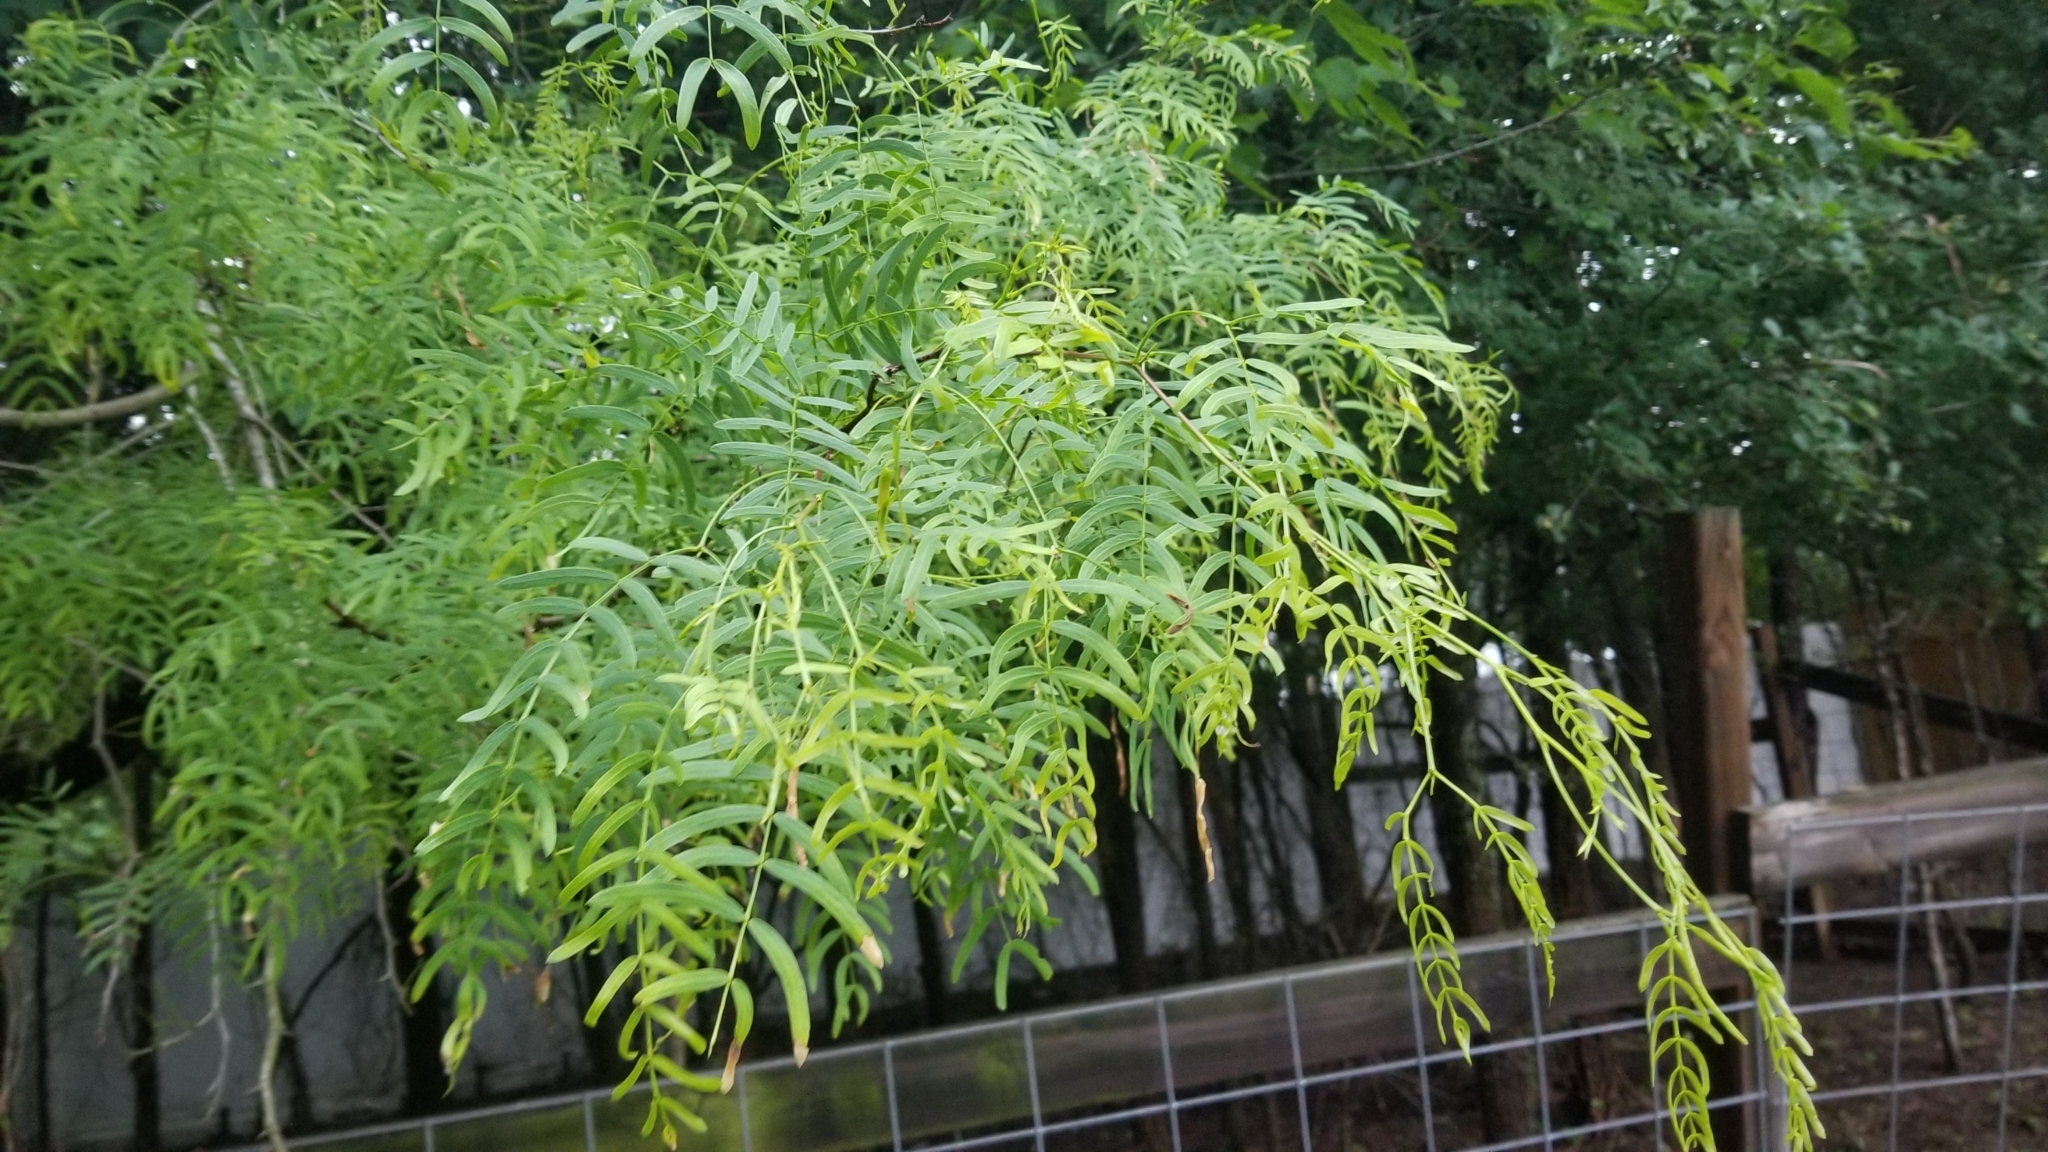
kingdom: Plantae
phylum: Tracheophyta
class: Magnoliopsida
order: Fabales
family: Fabaceae
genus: Prosopis
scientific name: Prosopis glandulosa
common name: Honey mesquite
